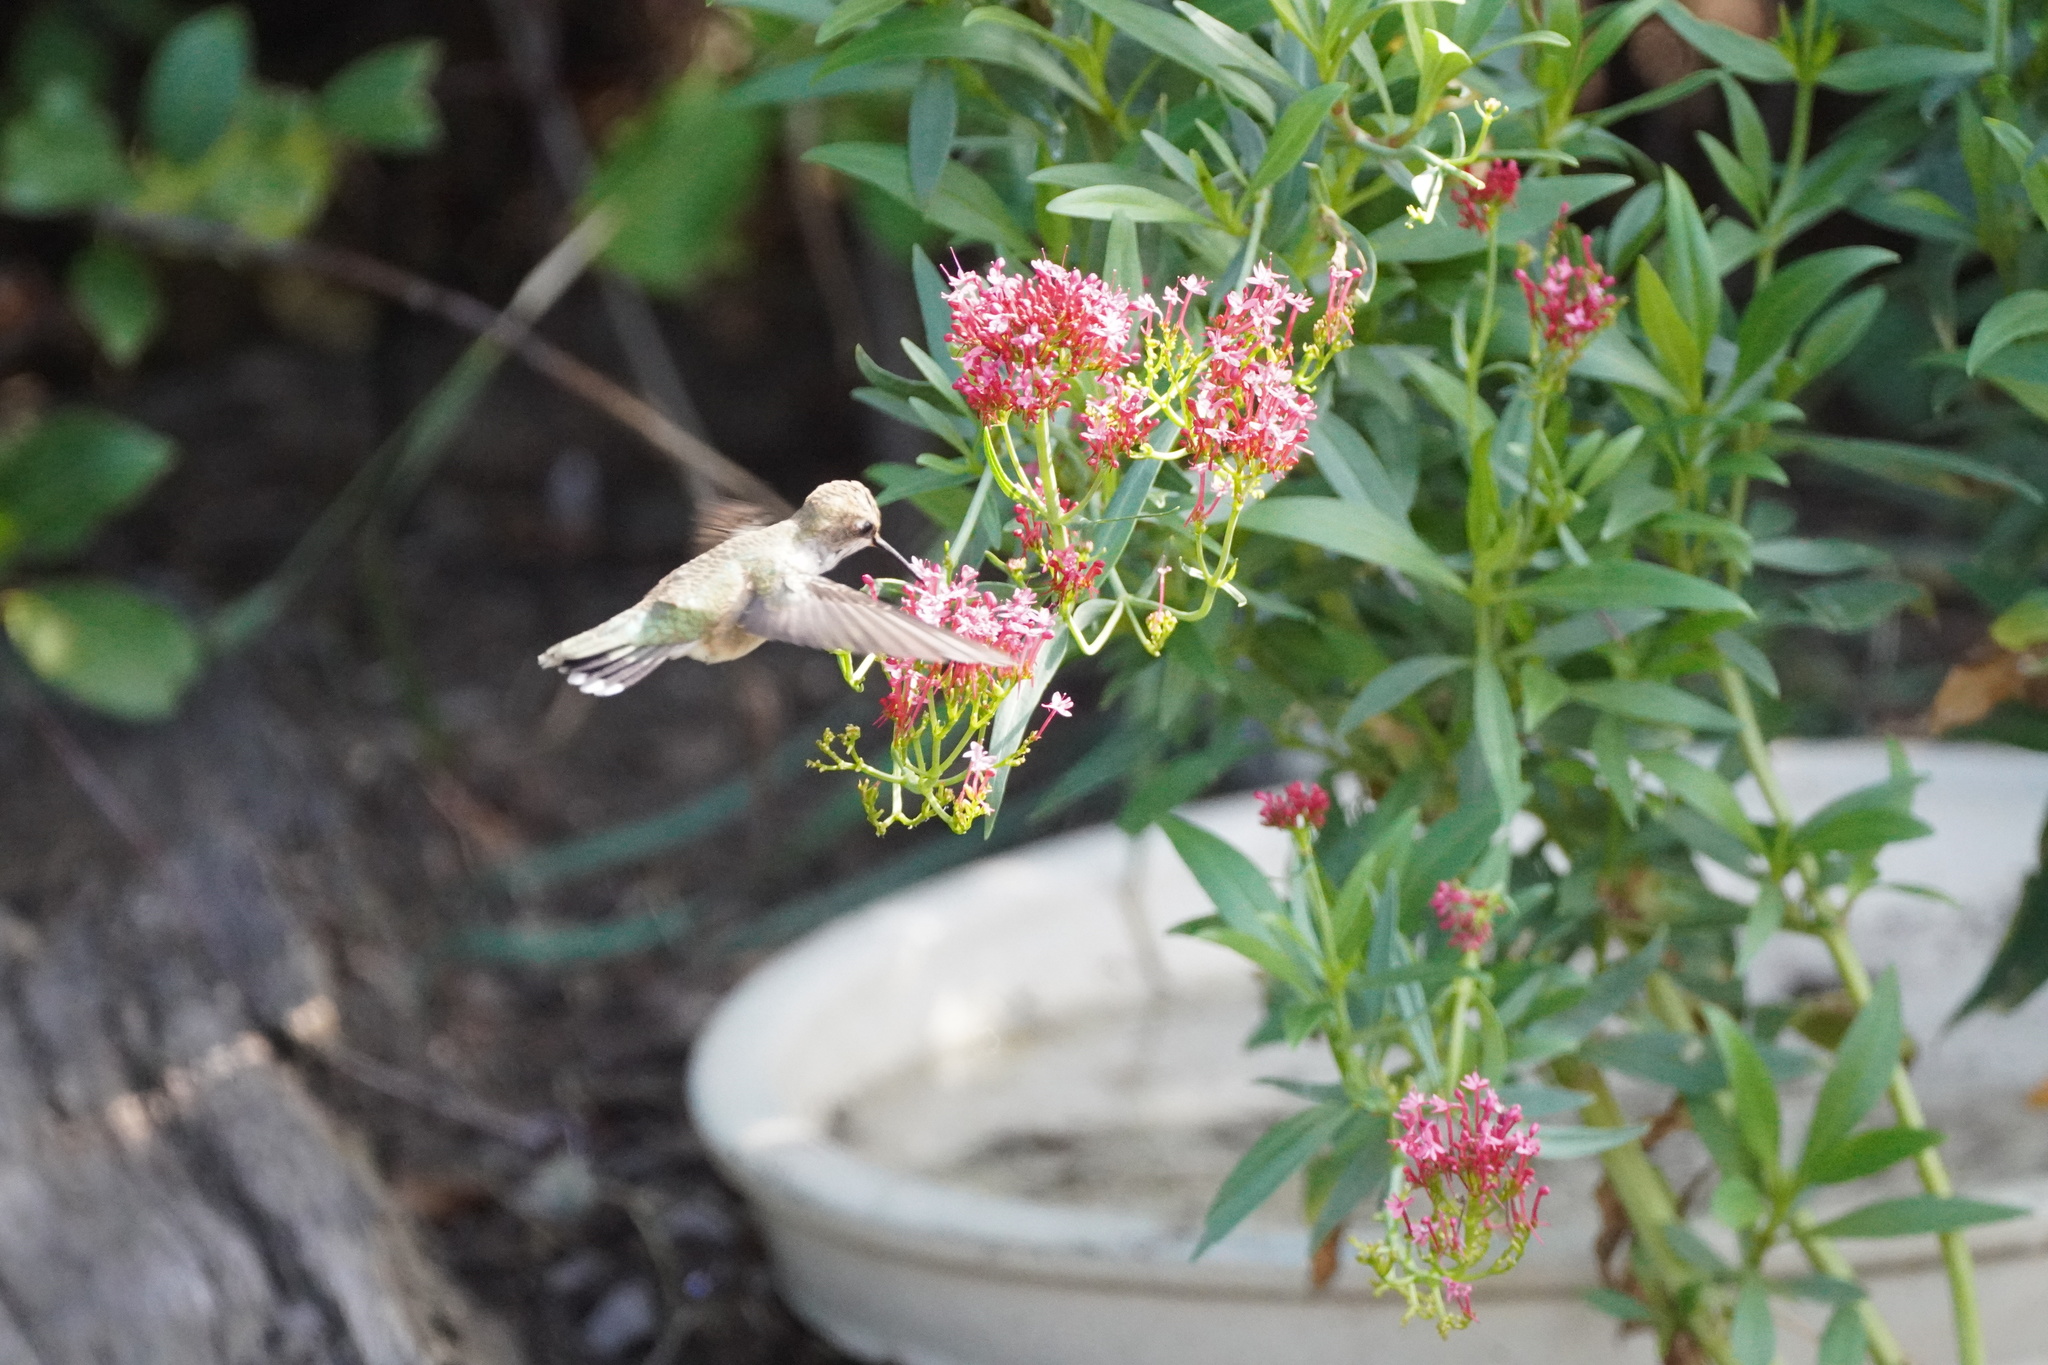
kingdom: Animalia
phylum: Chordata
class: Aves
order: Apodiformes
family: Trochilidae
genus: Archilochus
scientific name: Archilochus alexandri
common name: Black-chinned hummingbird
